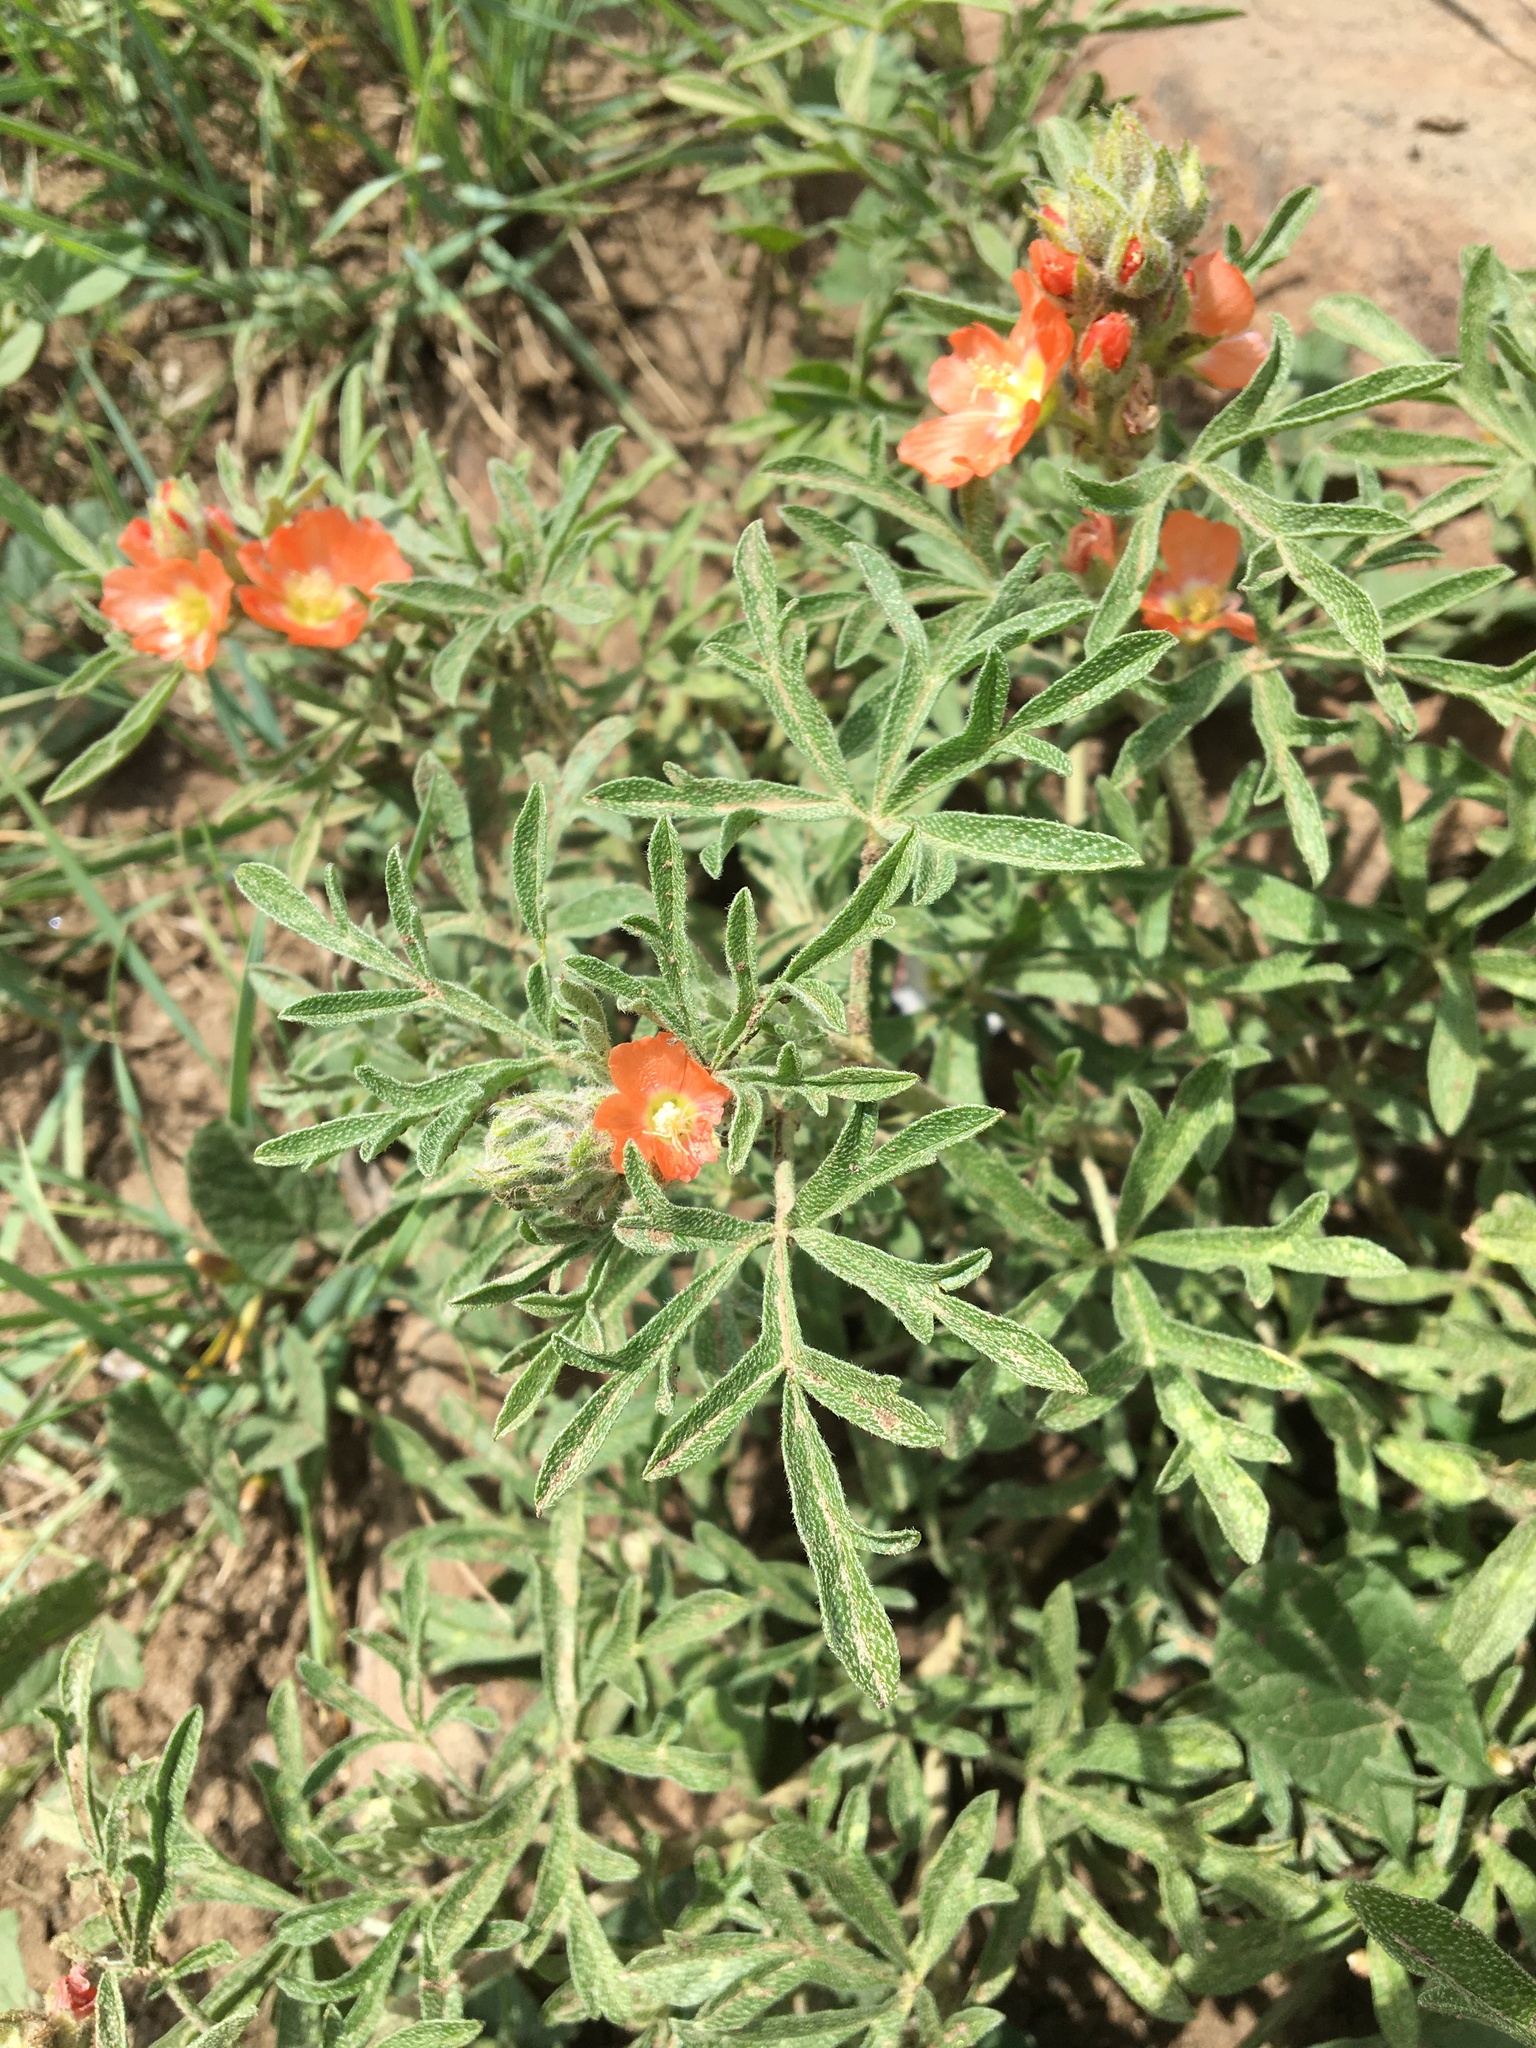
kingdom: Plantae
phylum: Tracheophyta
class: Magnoliopsida
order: Malvales
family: Malvaceae
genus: Sphaeralcea
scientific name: Sphaeralcea coccinea
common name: Moss-rose
